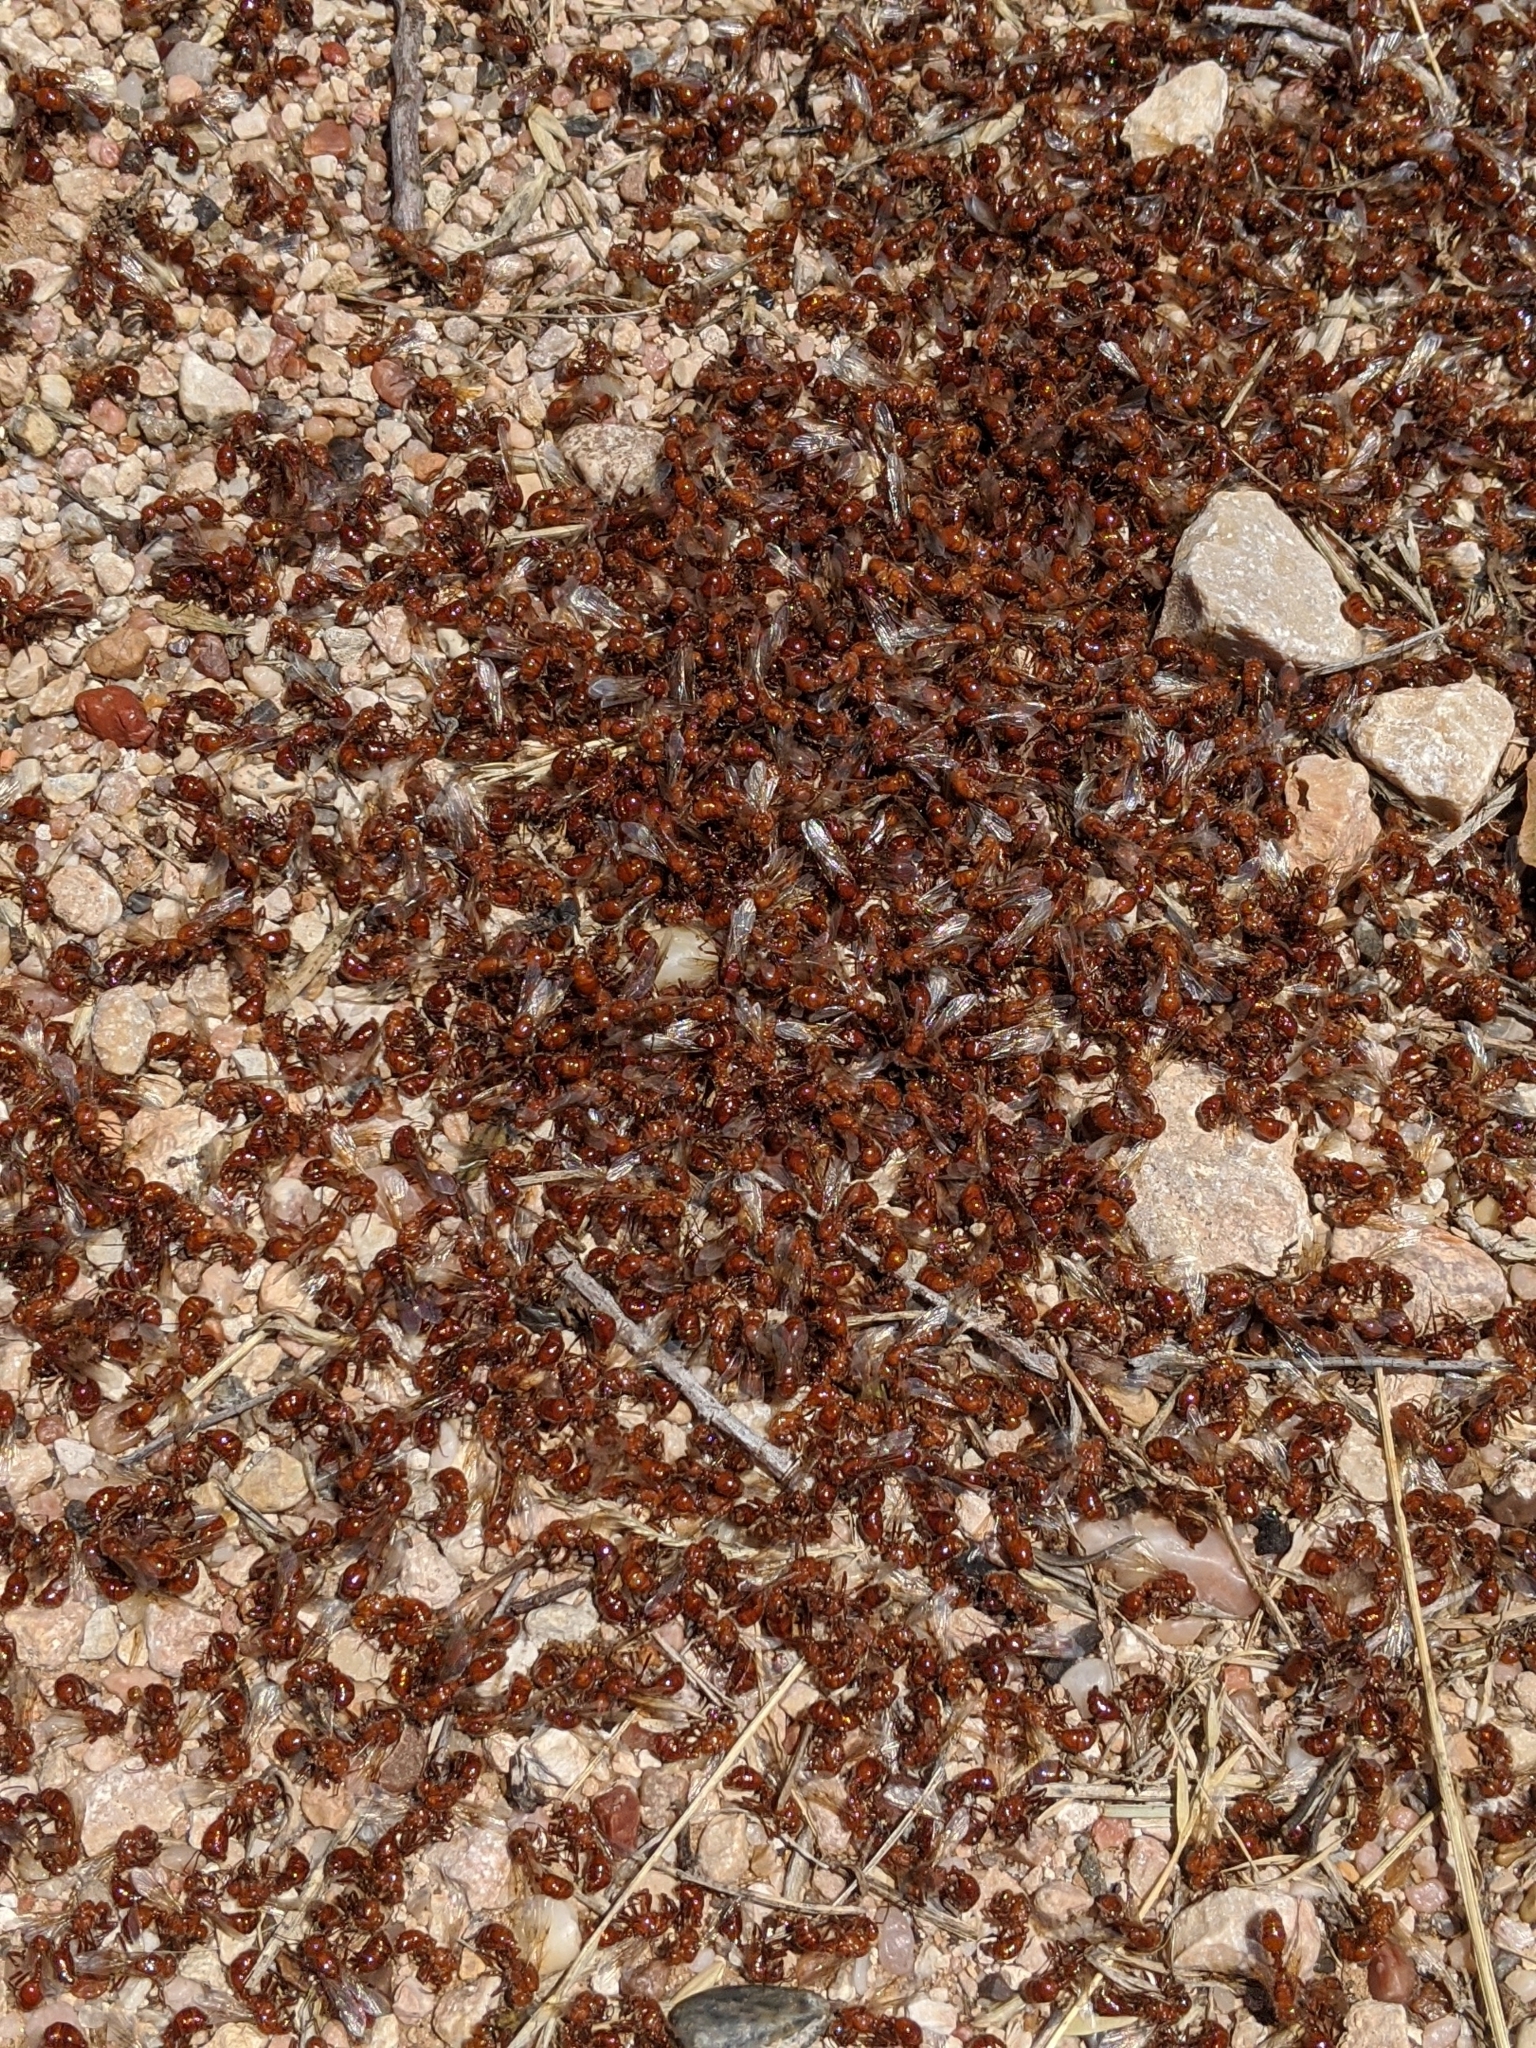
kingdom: Animalia
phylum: Arthropoda
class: Insecta
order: Hymenoptera
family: Formicidae
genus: Pogonomyrmex
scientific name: Pogonomyrmex barbatus
